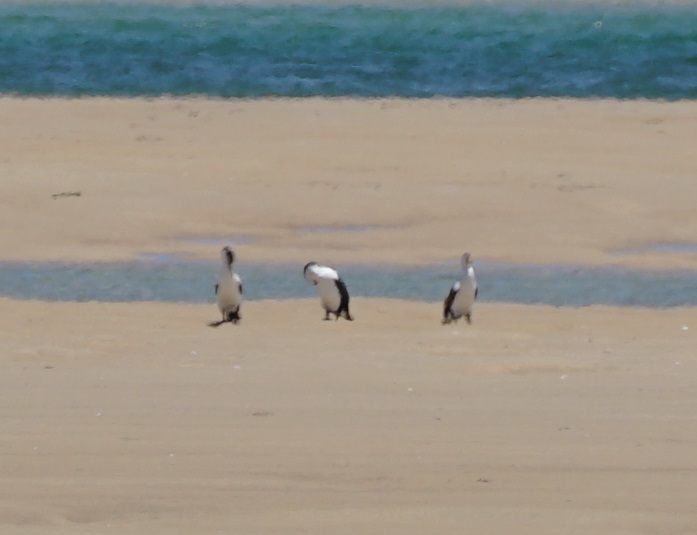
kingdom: Animalia
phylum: Chordata
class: Aves
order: Suliformes
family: Phalacrocoracidae
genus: Phalacrocorax
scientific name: Phalacrocorax varius
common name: Pied cormorant
